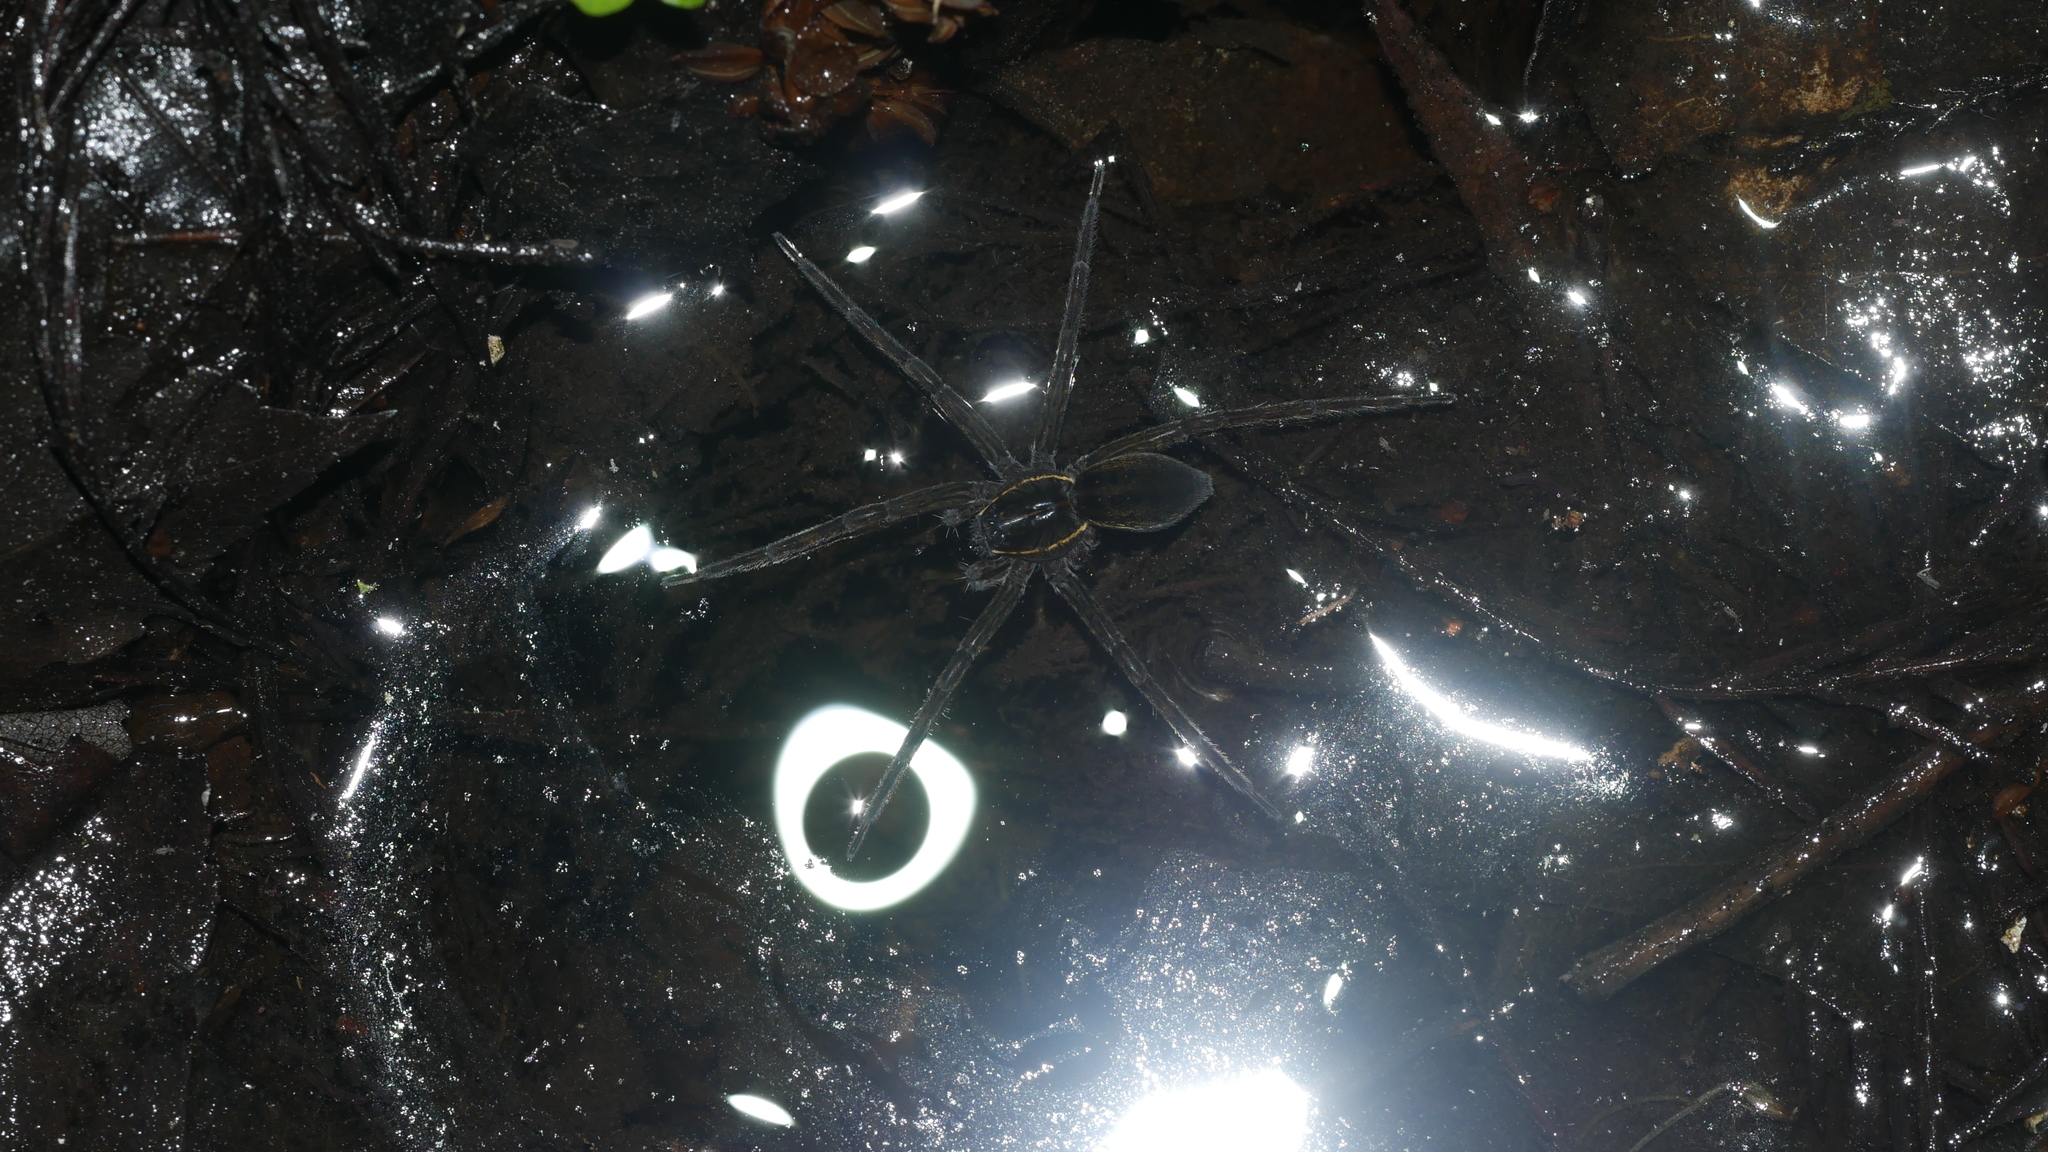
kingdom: Animalia
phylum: Arthropoda
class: Arachnida
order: Araneae
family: Pisauridae
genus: Dolomedes
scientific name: Dolomedes triton
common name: Six-spotted fishing spider
